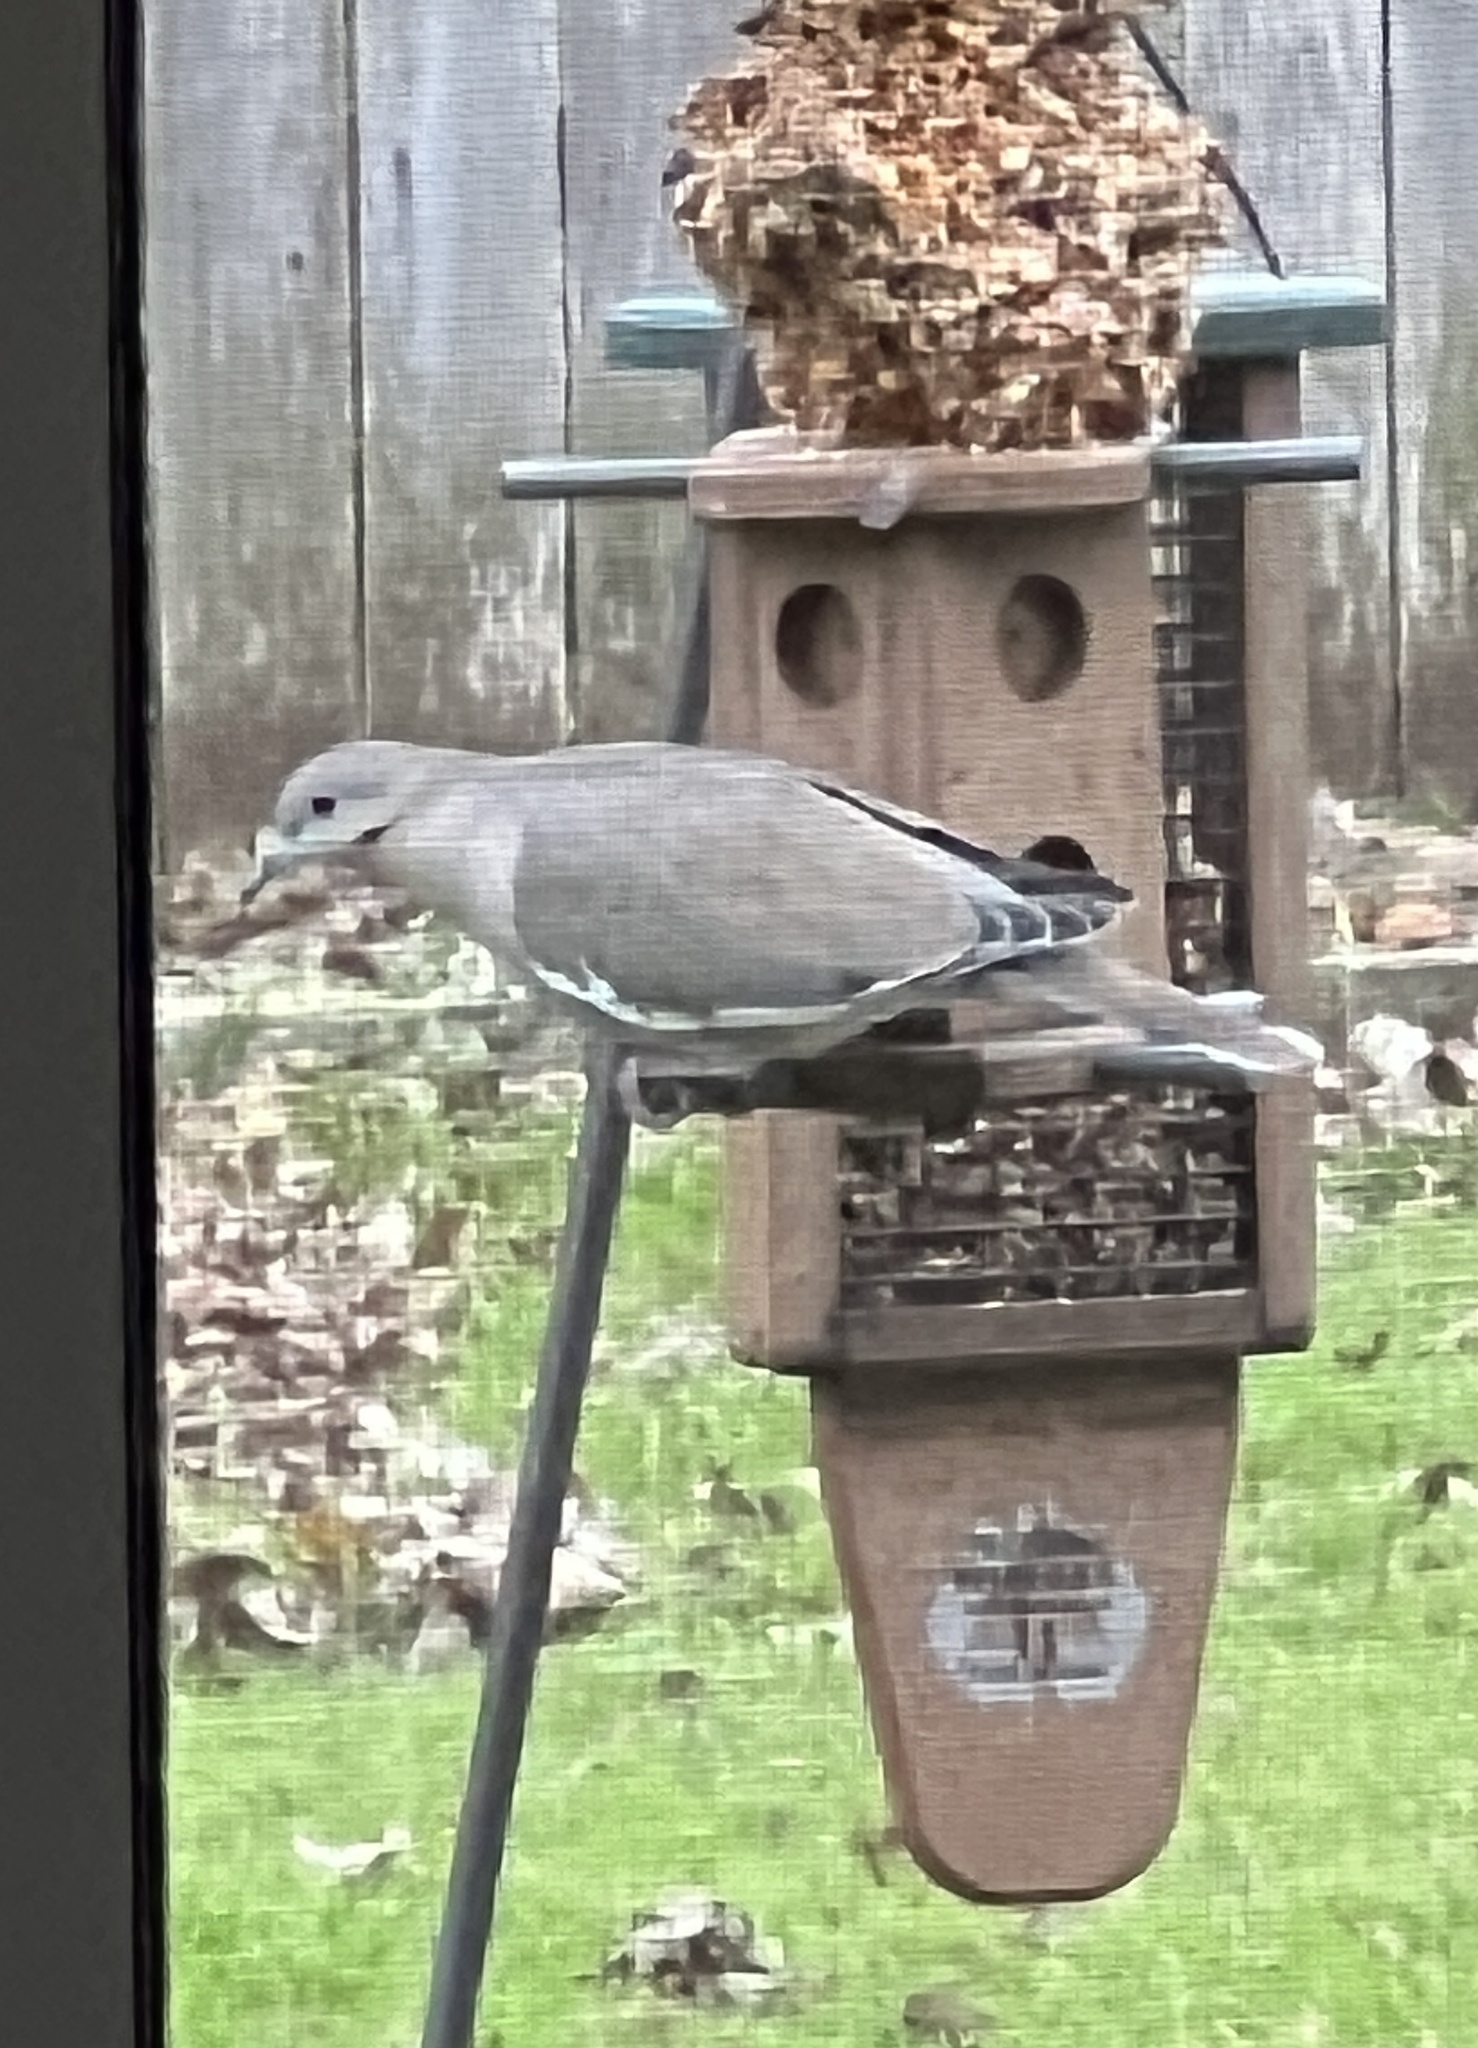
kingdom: Animalia
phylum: Chordata
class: Aves
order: Columbiformes
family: Columbidae
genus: Zenaida
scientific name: Zenaida asiatica
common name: White-winged dove
